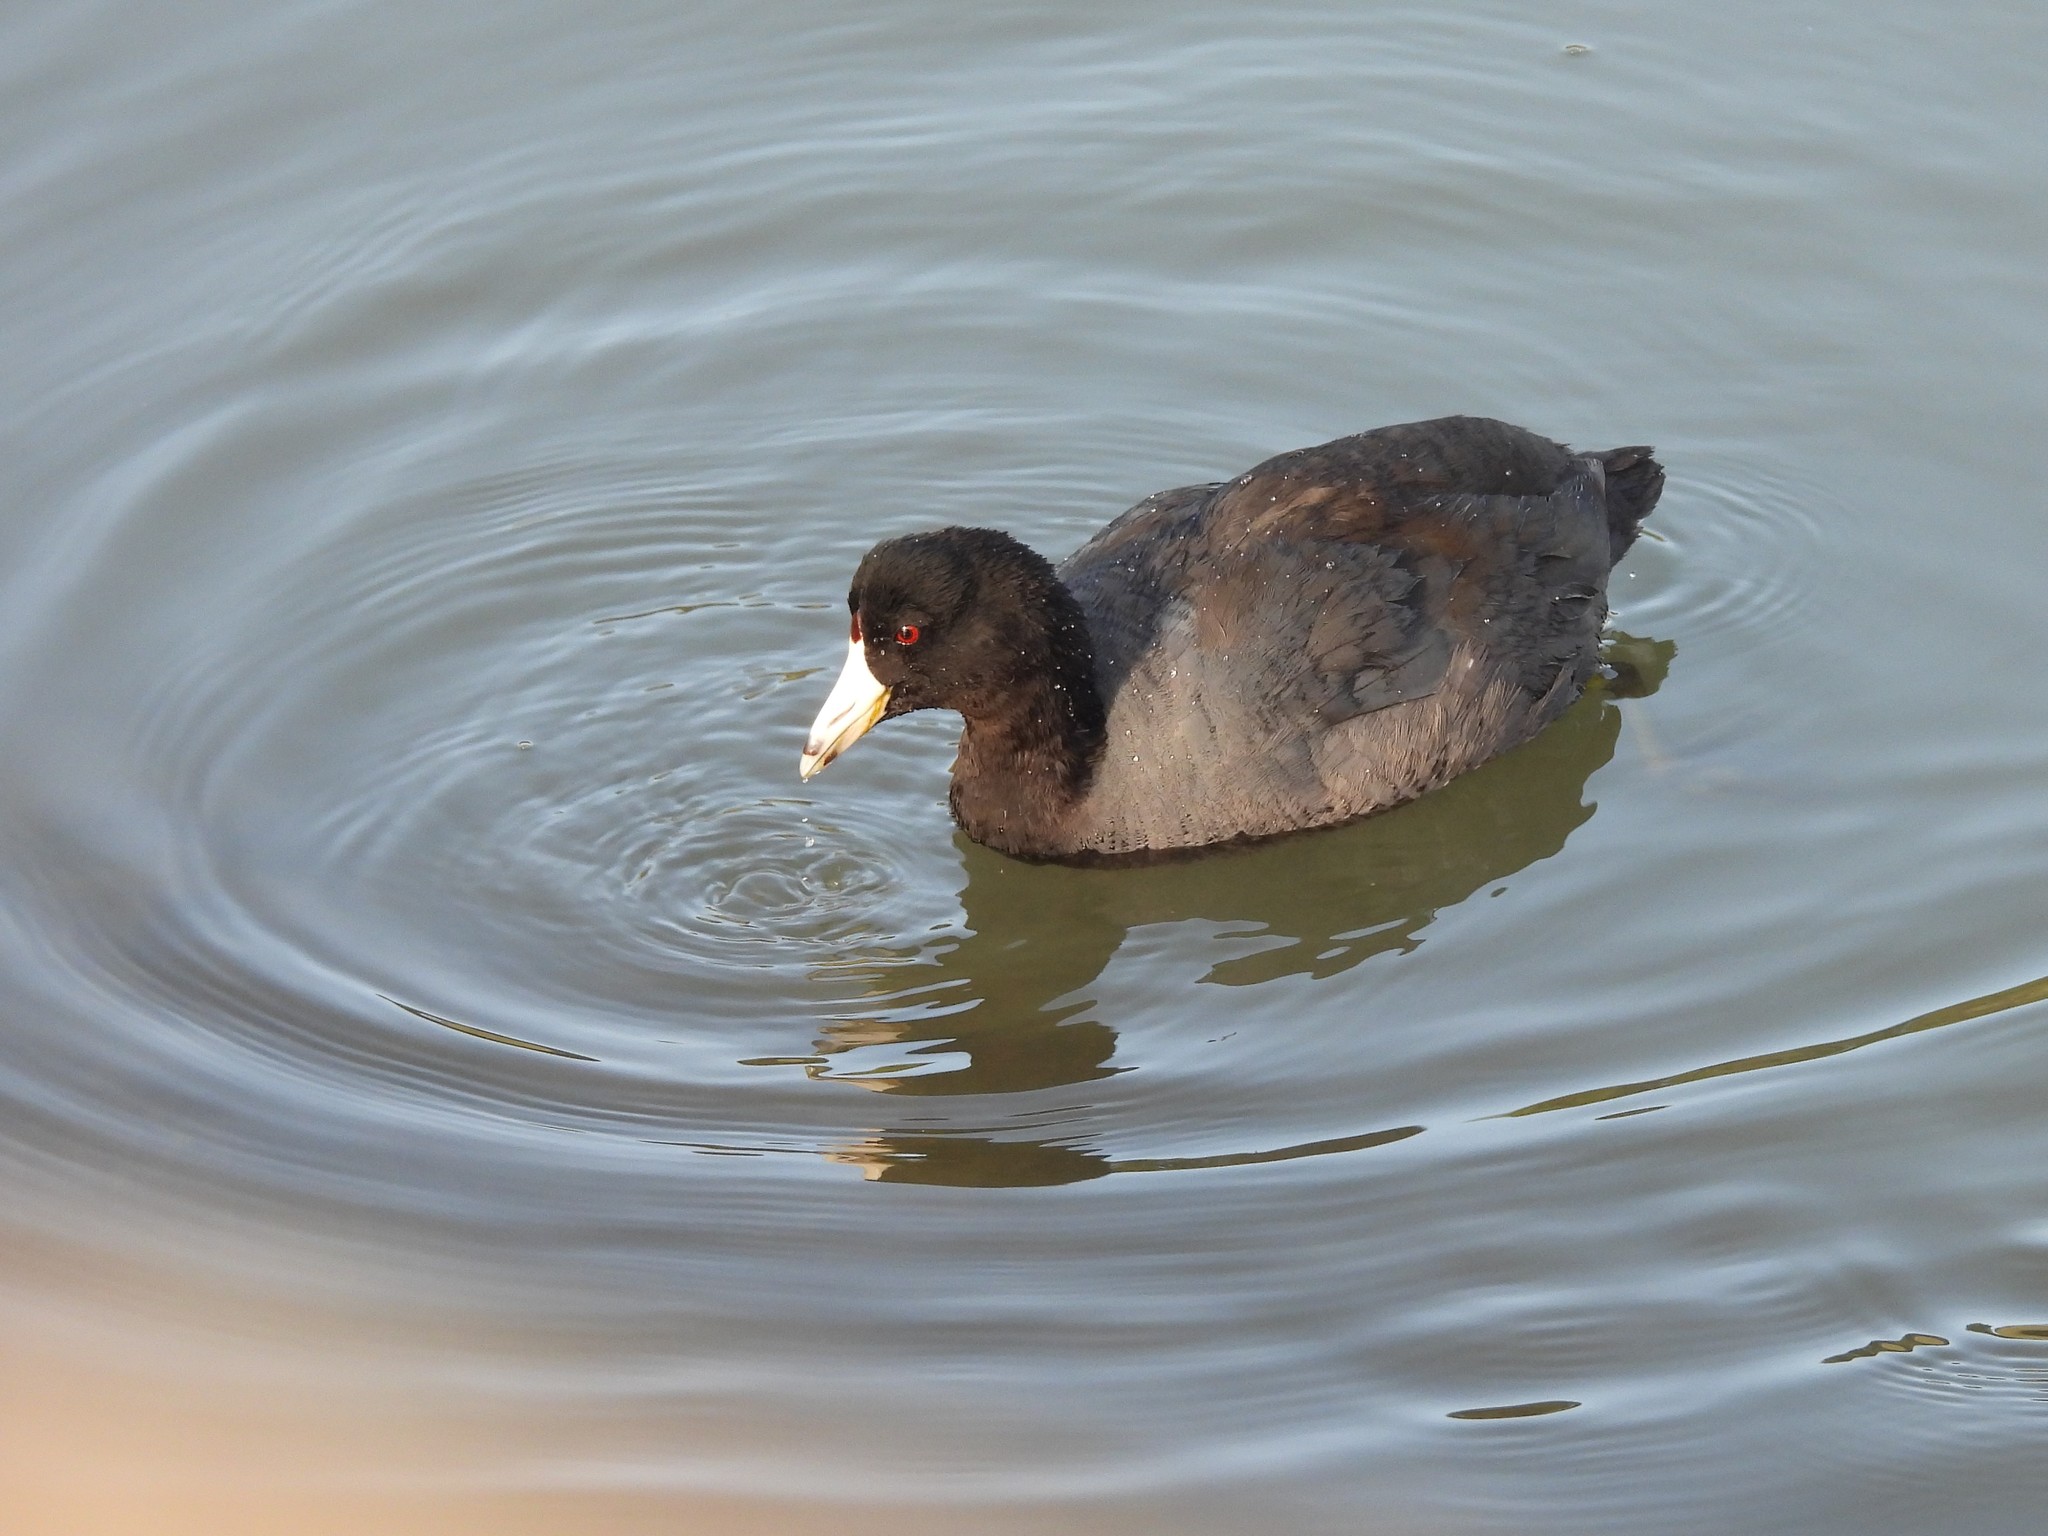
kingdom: Animalia
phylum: Chordata
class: Aves
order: Gruiformes
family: Rallidae
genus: Fulica
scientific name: Fulica americana
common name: American coot
